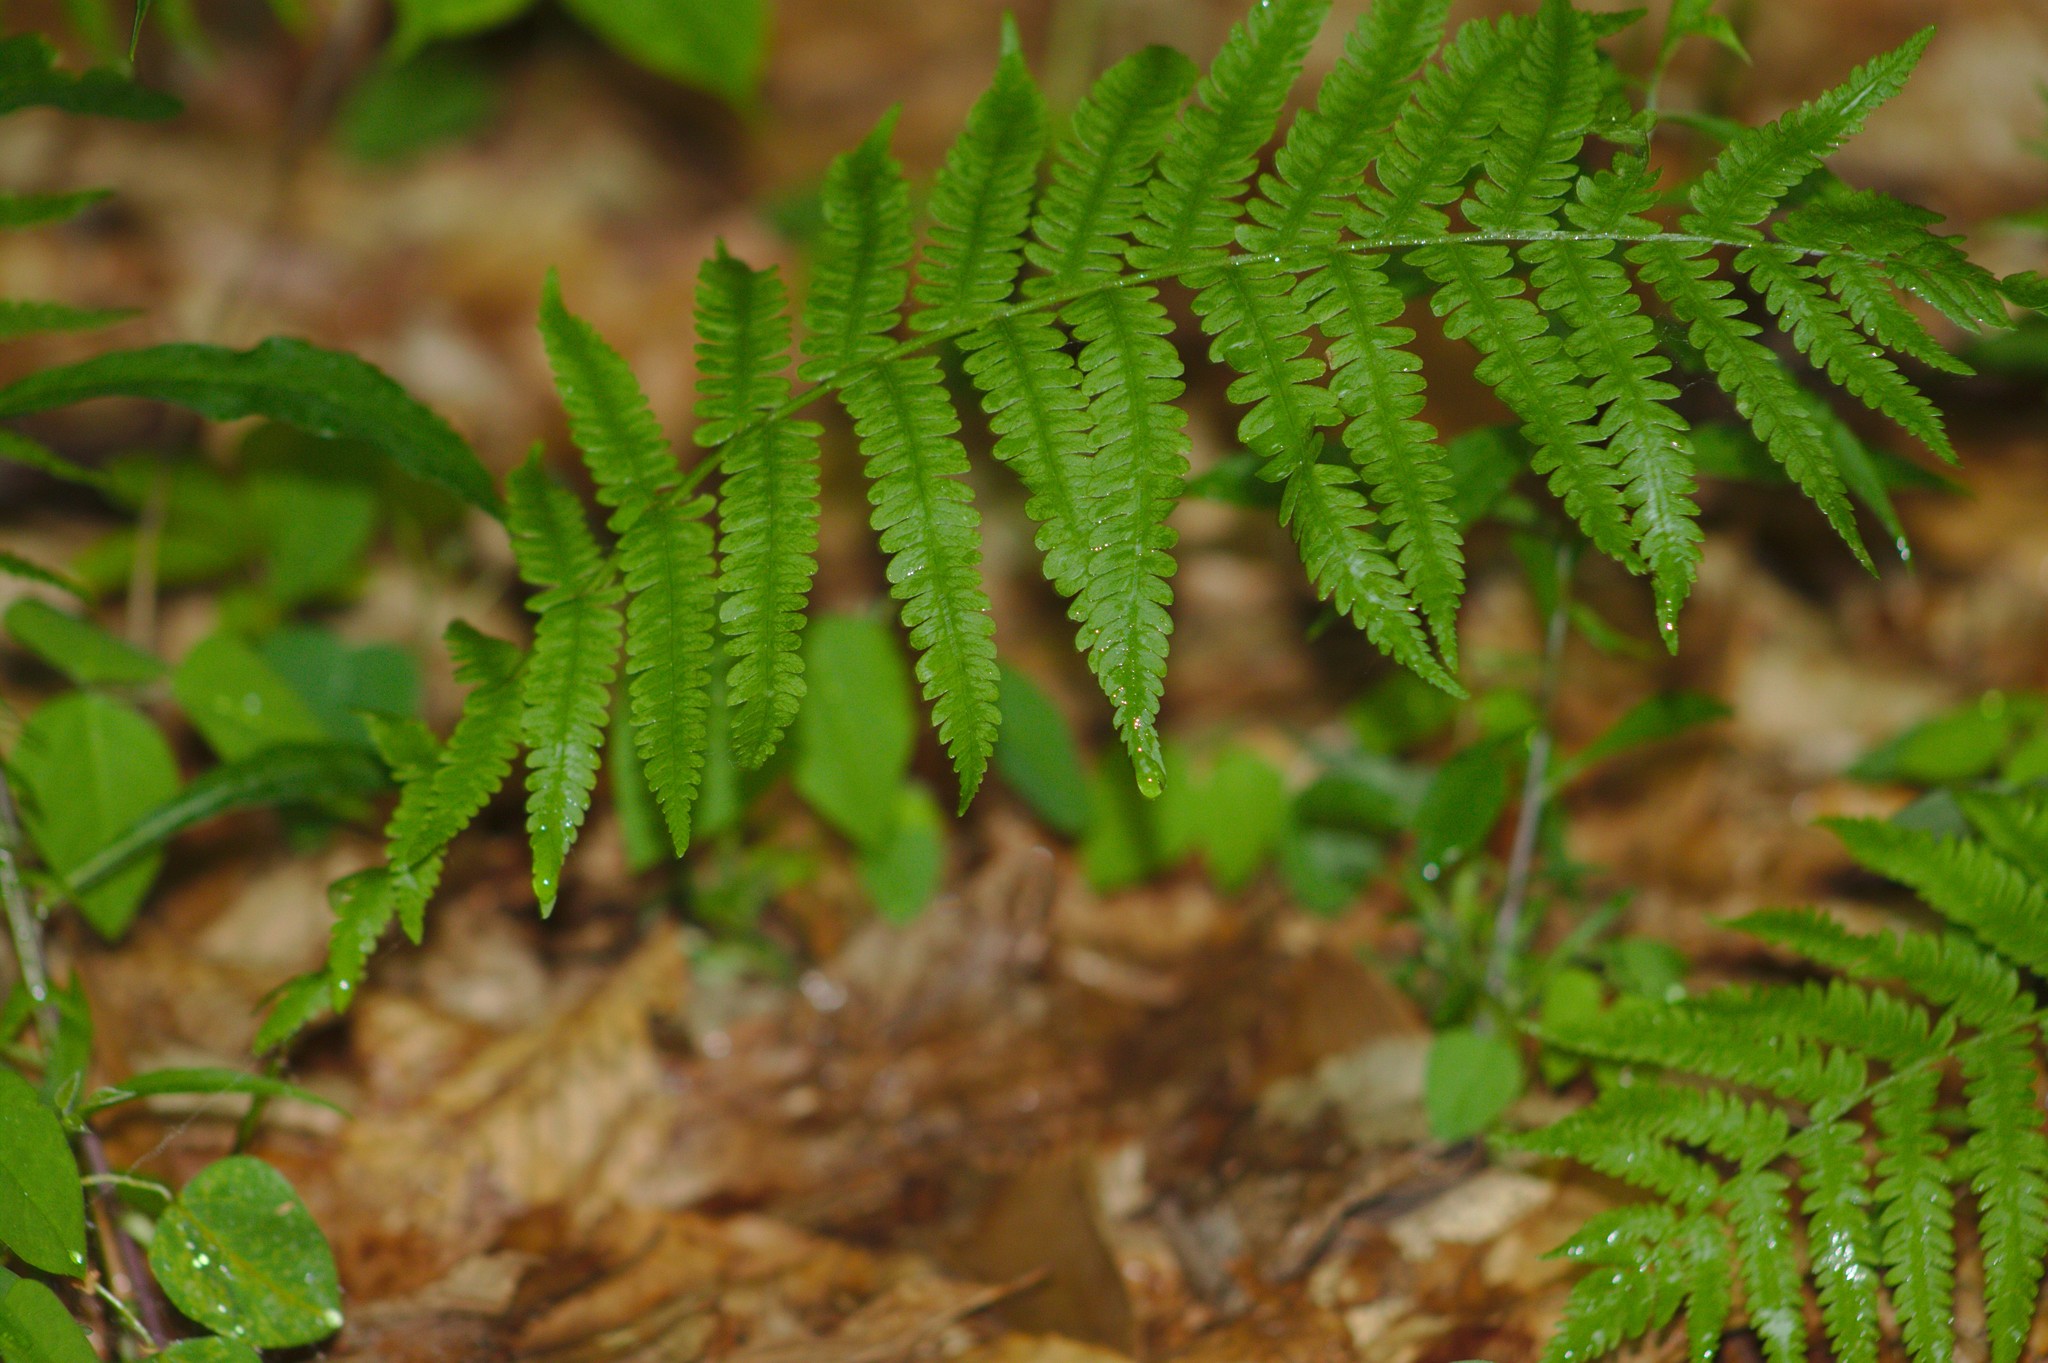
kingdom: Plantae
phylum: Tracheophyta
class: Polypodiopsida
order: Polypodiales
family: Thelypteridaceae
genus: Amauropelta
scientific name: Amauropelta noveboracensis
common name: New york fern
